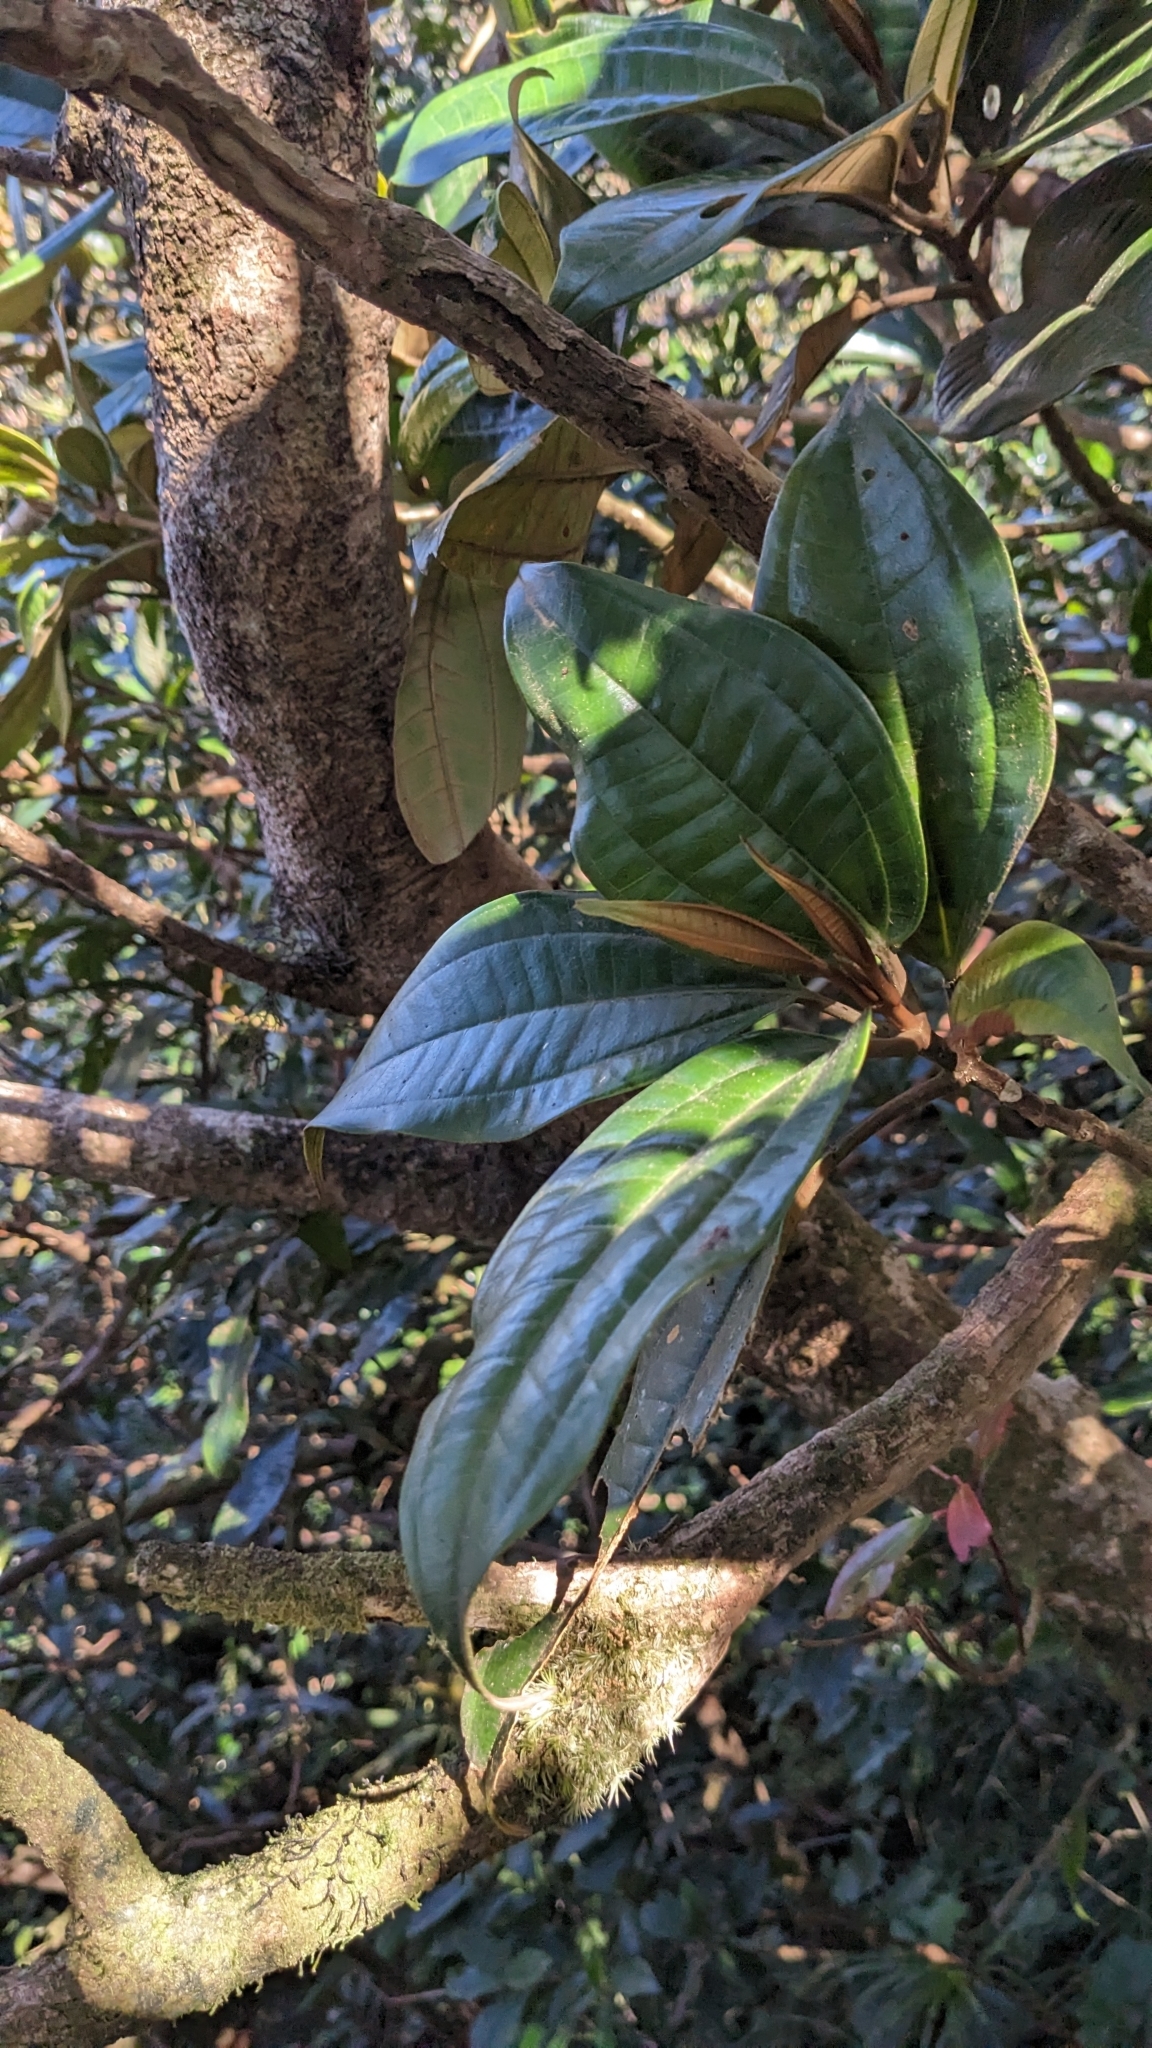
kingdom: Plantae
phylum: Tracheophyta
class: Magnoliopsida
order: Myrtales
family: Melastomataceae
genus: Astronia
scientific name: Astronia ferruginea
